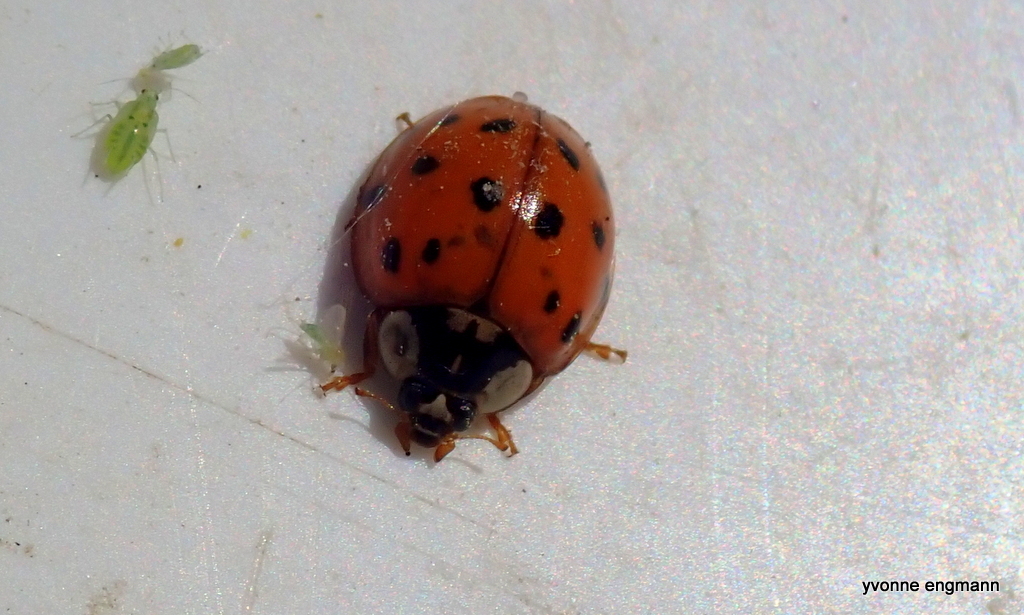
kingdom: Animalia
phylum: Arthropoda
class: Insecta
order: Coleoptera
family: Coccinellidae
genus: Harmonia
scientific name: Harmonia axyridis
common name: Harlequin ladybird
